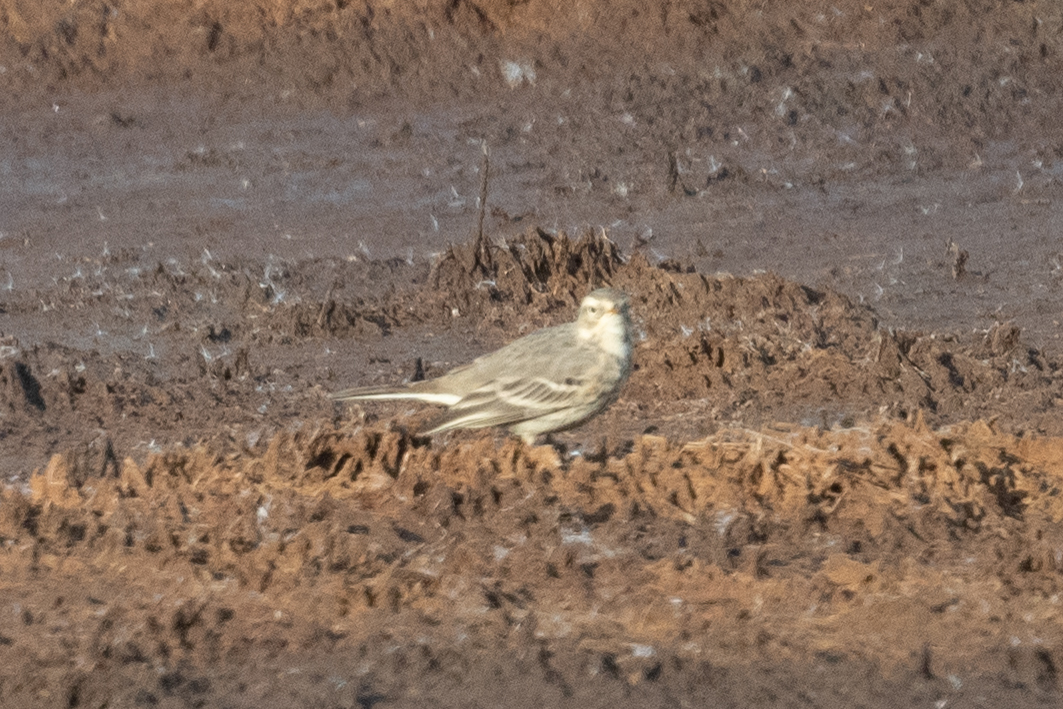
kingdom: Animalia
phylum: Chordata
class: Aves
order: Passeriformes
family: Motacillidae
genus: Anthus
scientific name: Anthus rubescens
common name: Buff-bellied pipit
